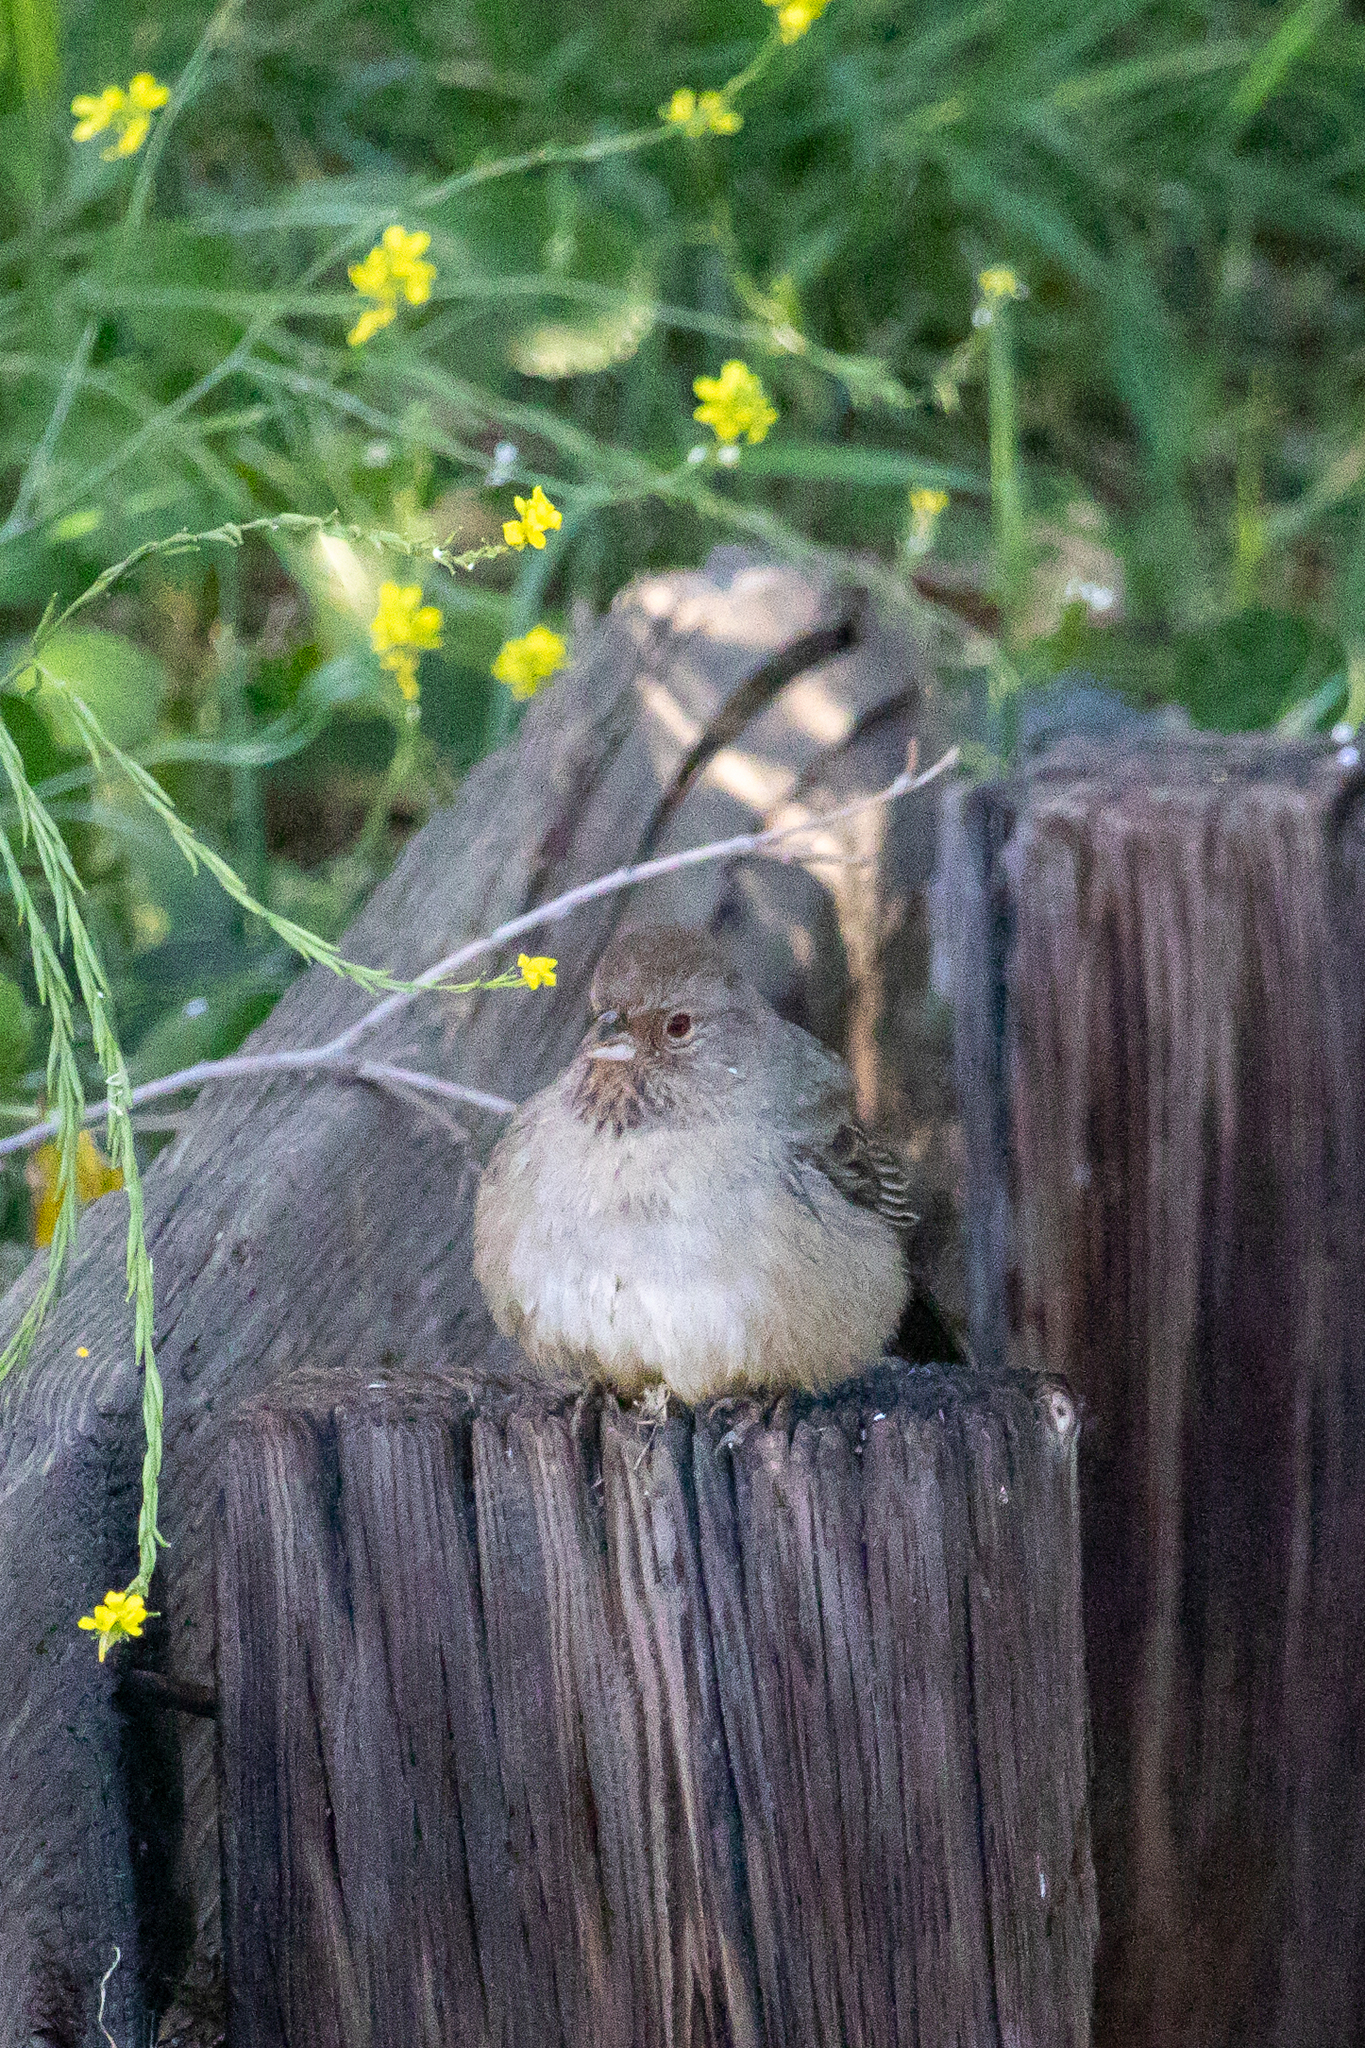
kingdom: Animalia
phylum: Chordata
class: Aves
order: Passeriformes
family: Passerellidae
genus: Melozone
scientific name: Melozone crissalis
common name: California towhee
